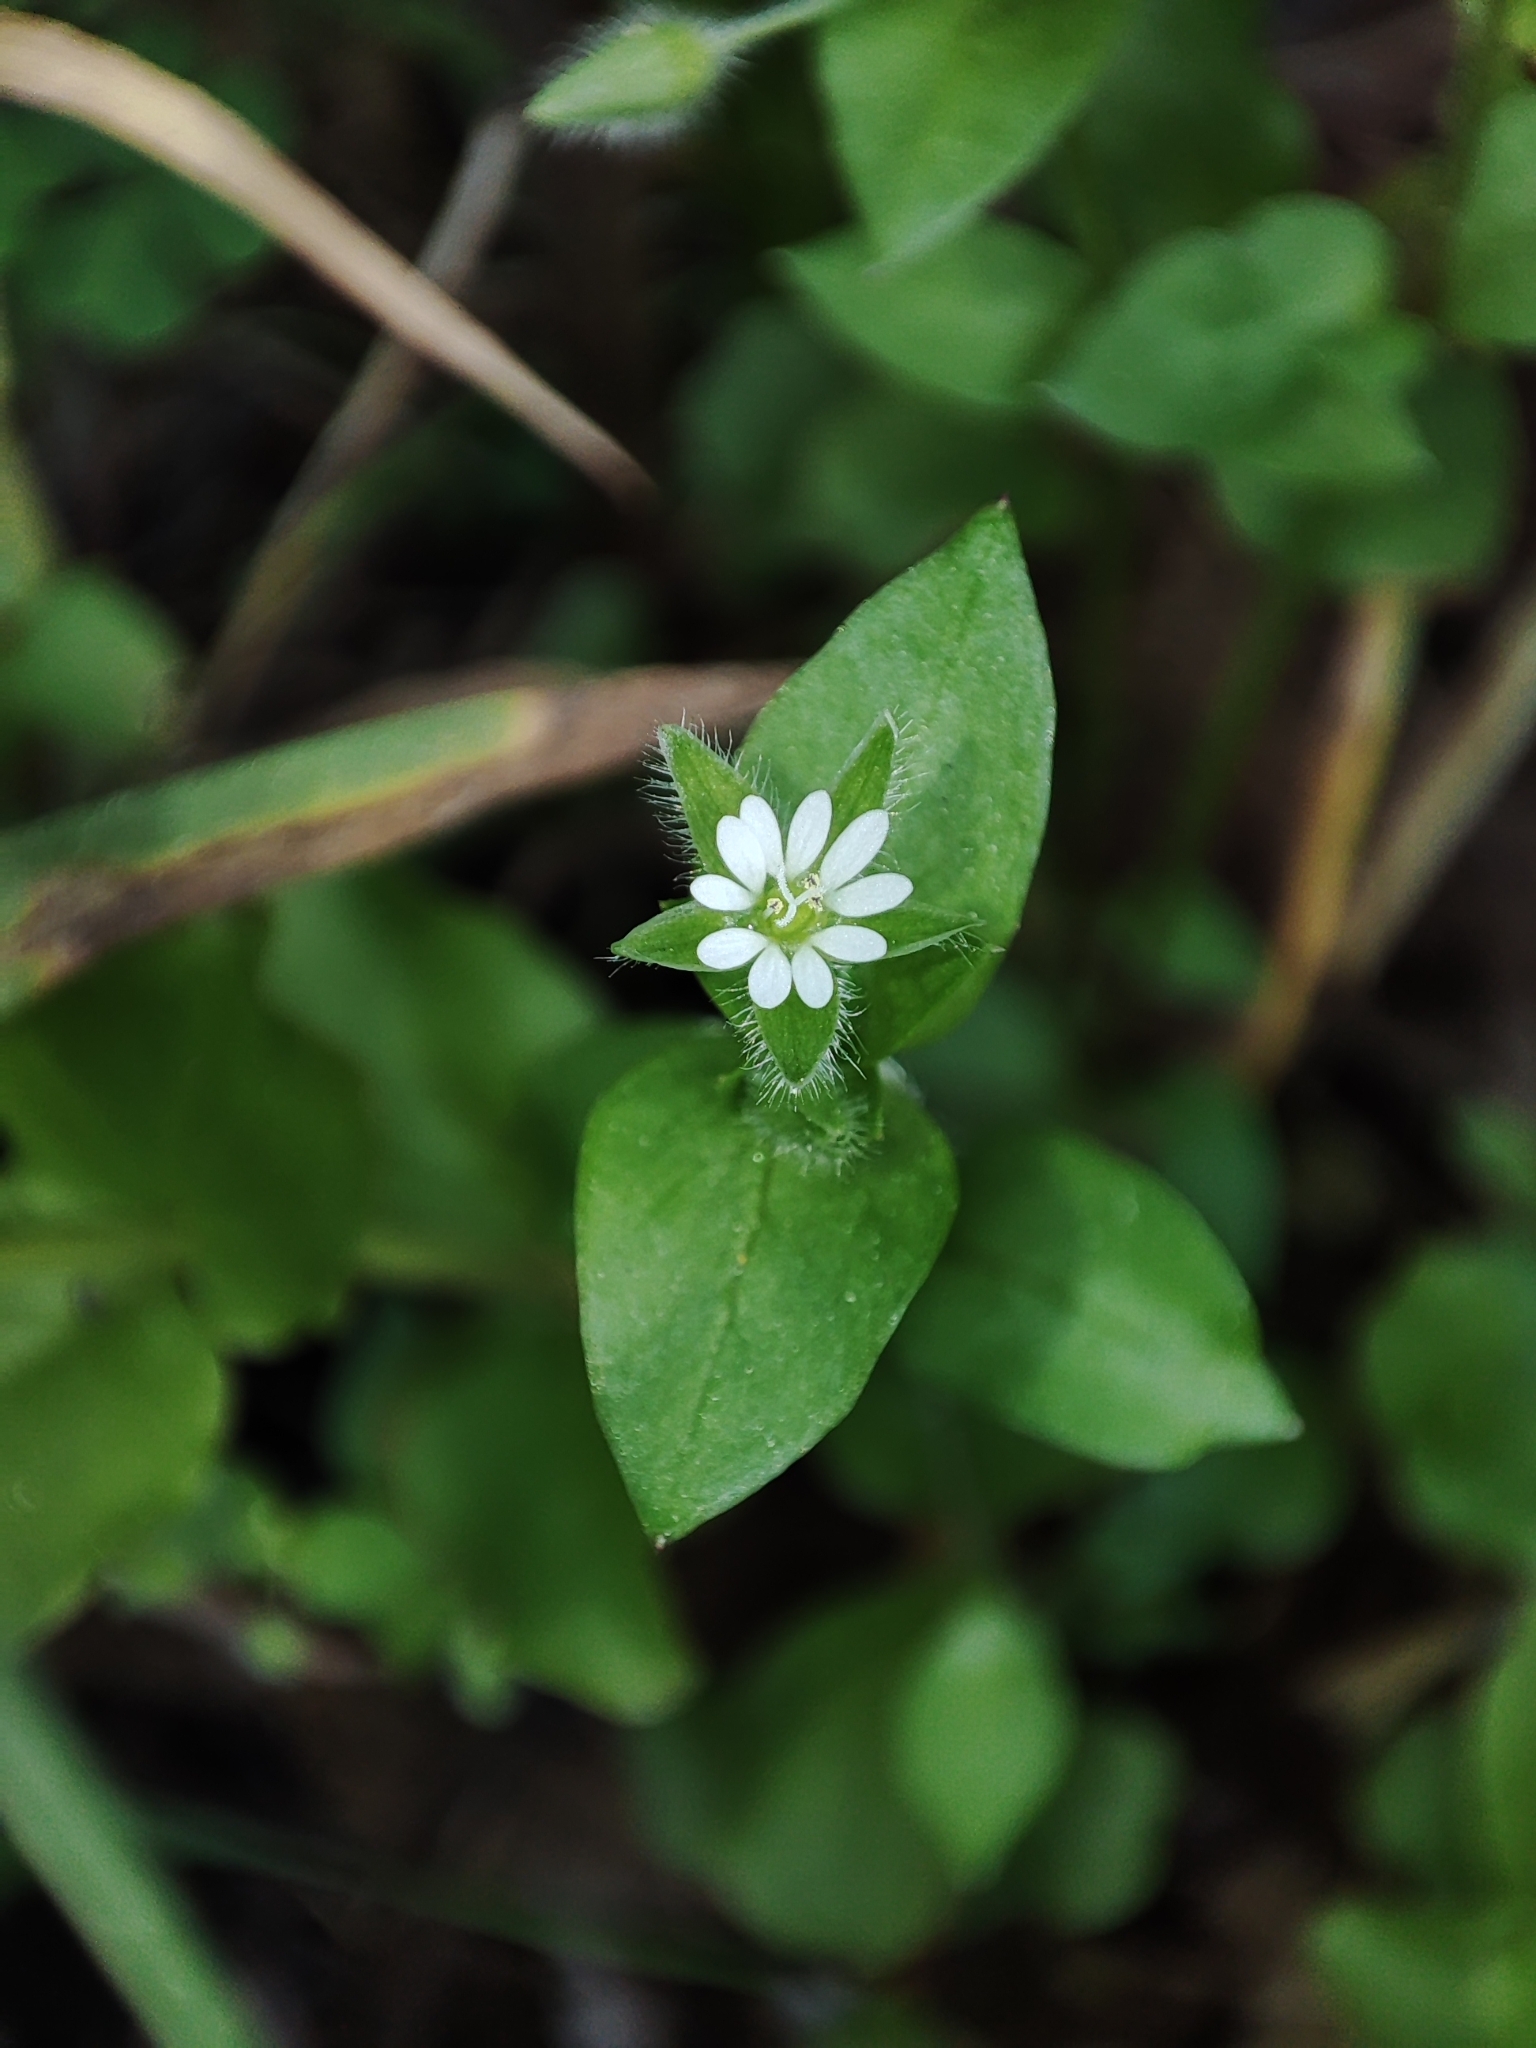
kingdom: Plantae
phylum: Tracheophyta
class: Magnoliopsida
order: Caryophyllales
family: Caryophyllaceae
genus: Stellaria
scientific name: Stellaria media
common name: Common chickweed
